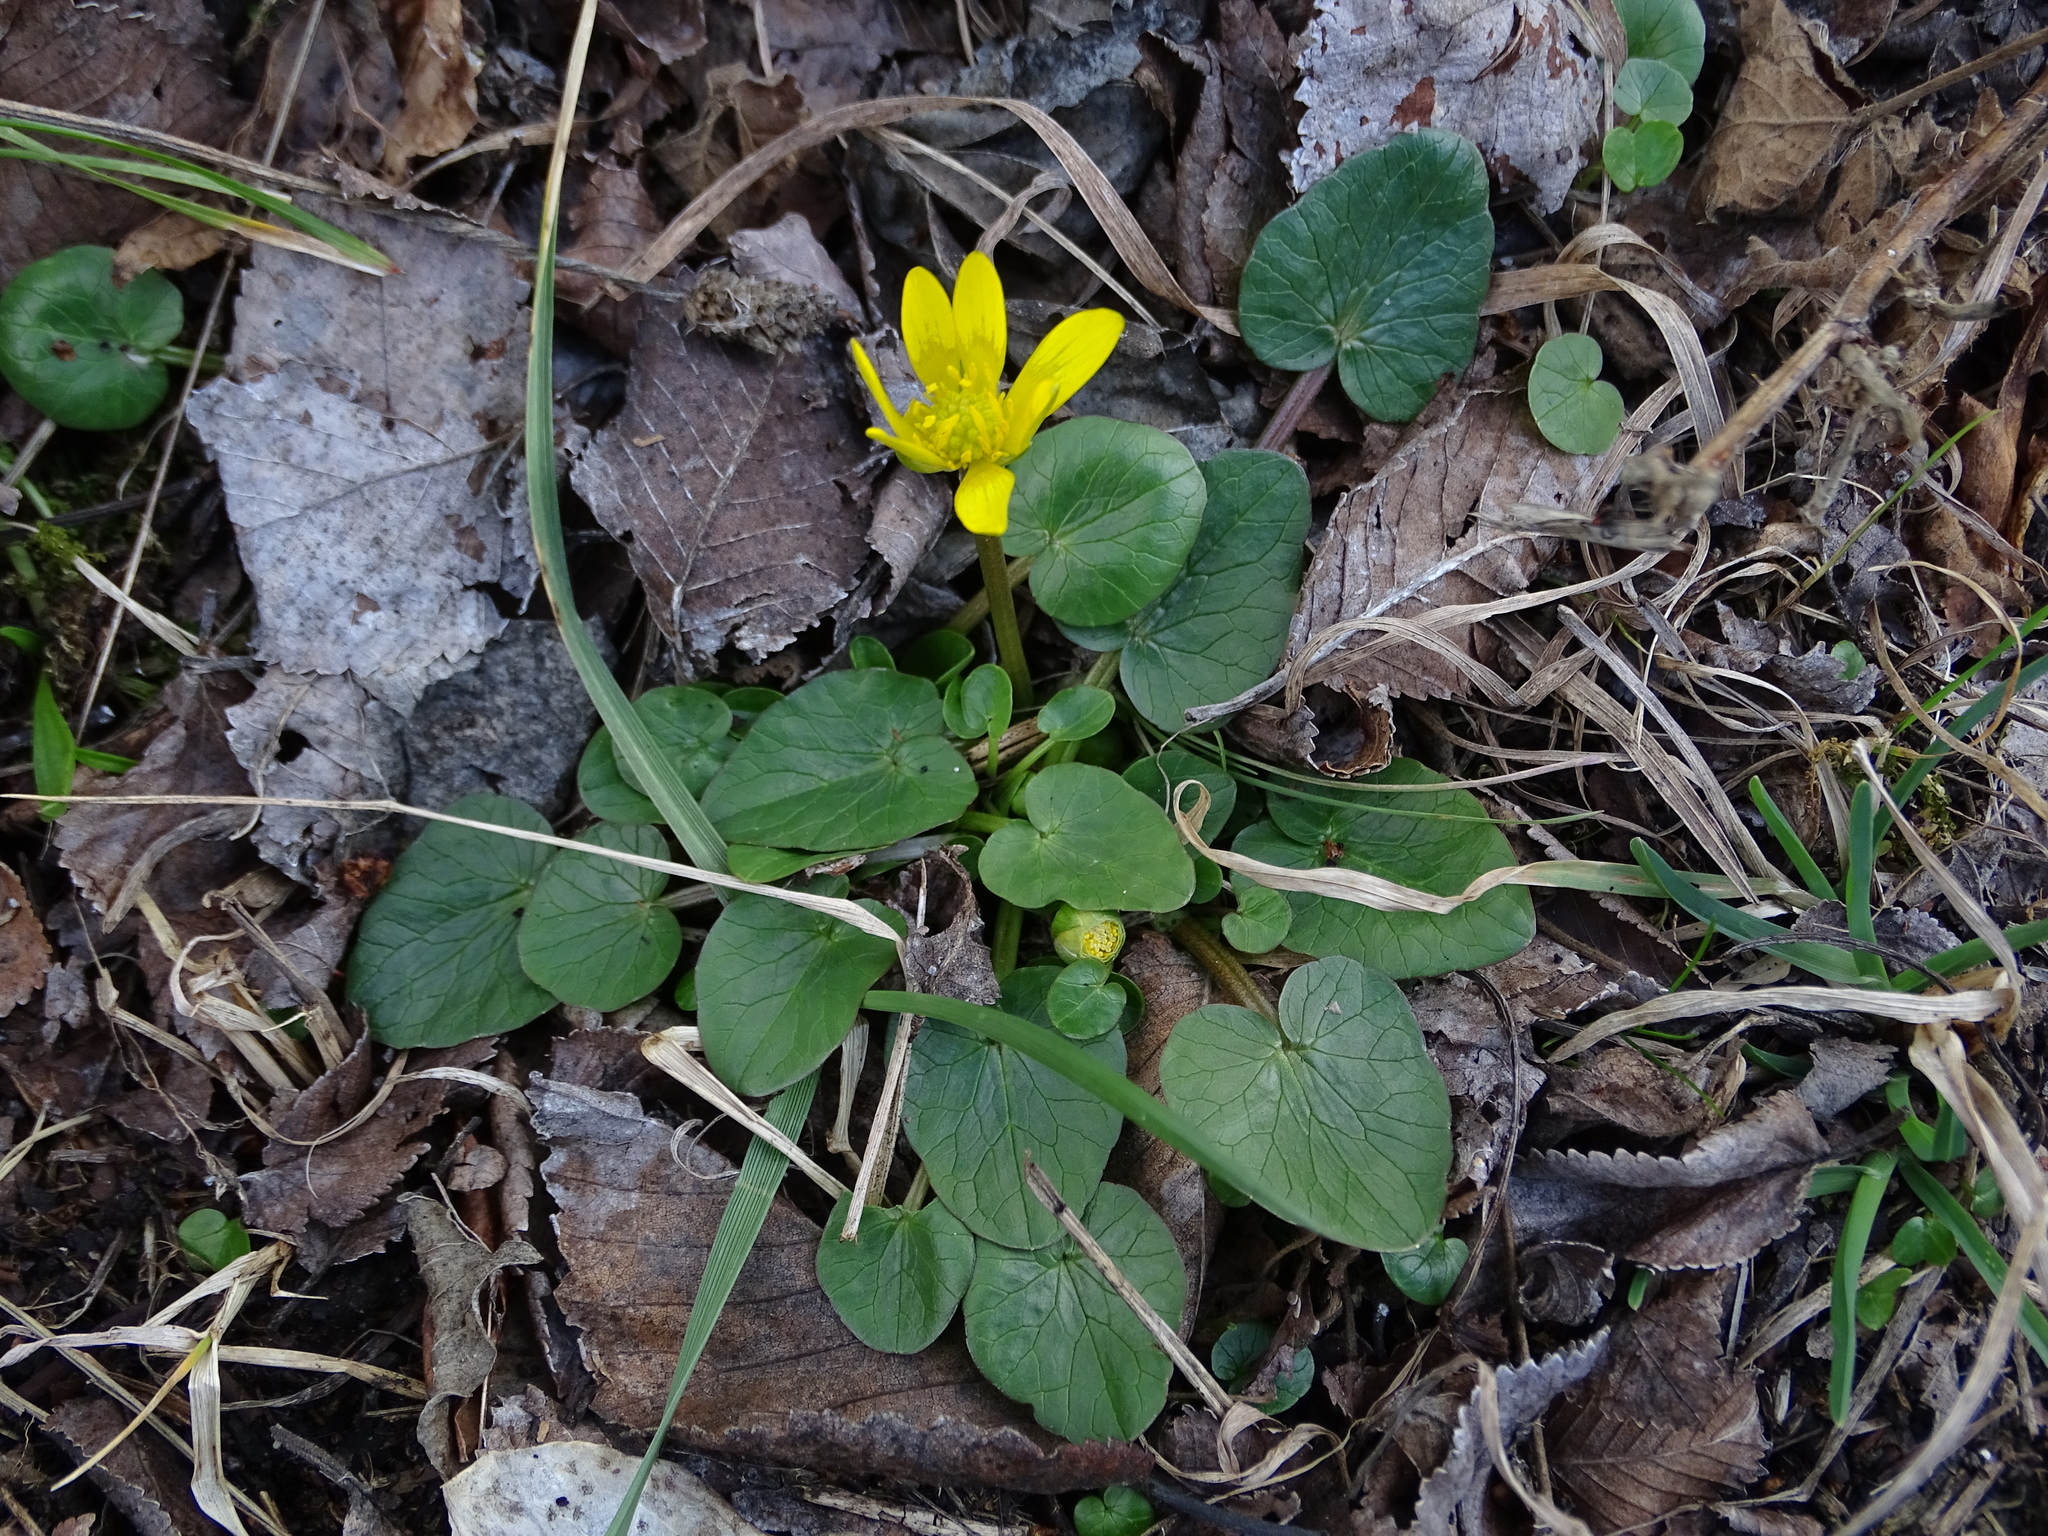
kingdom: Plantae
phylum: Tracheophyta
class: Magnoliopsida
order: Ranunculales
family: Ranunculaceae
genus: Ficaria
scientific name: Ficaria verna
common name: Lesser celandine
